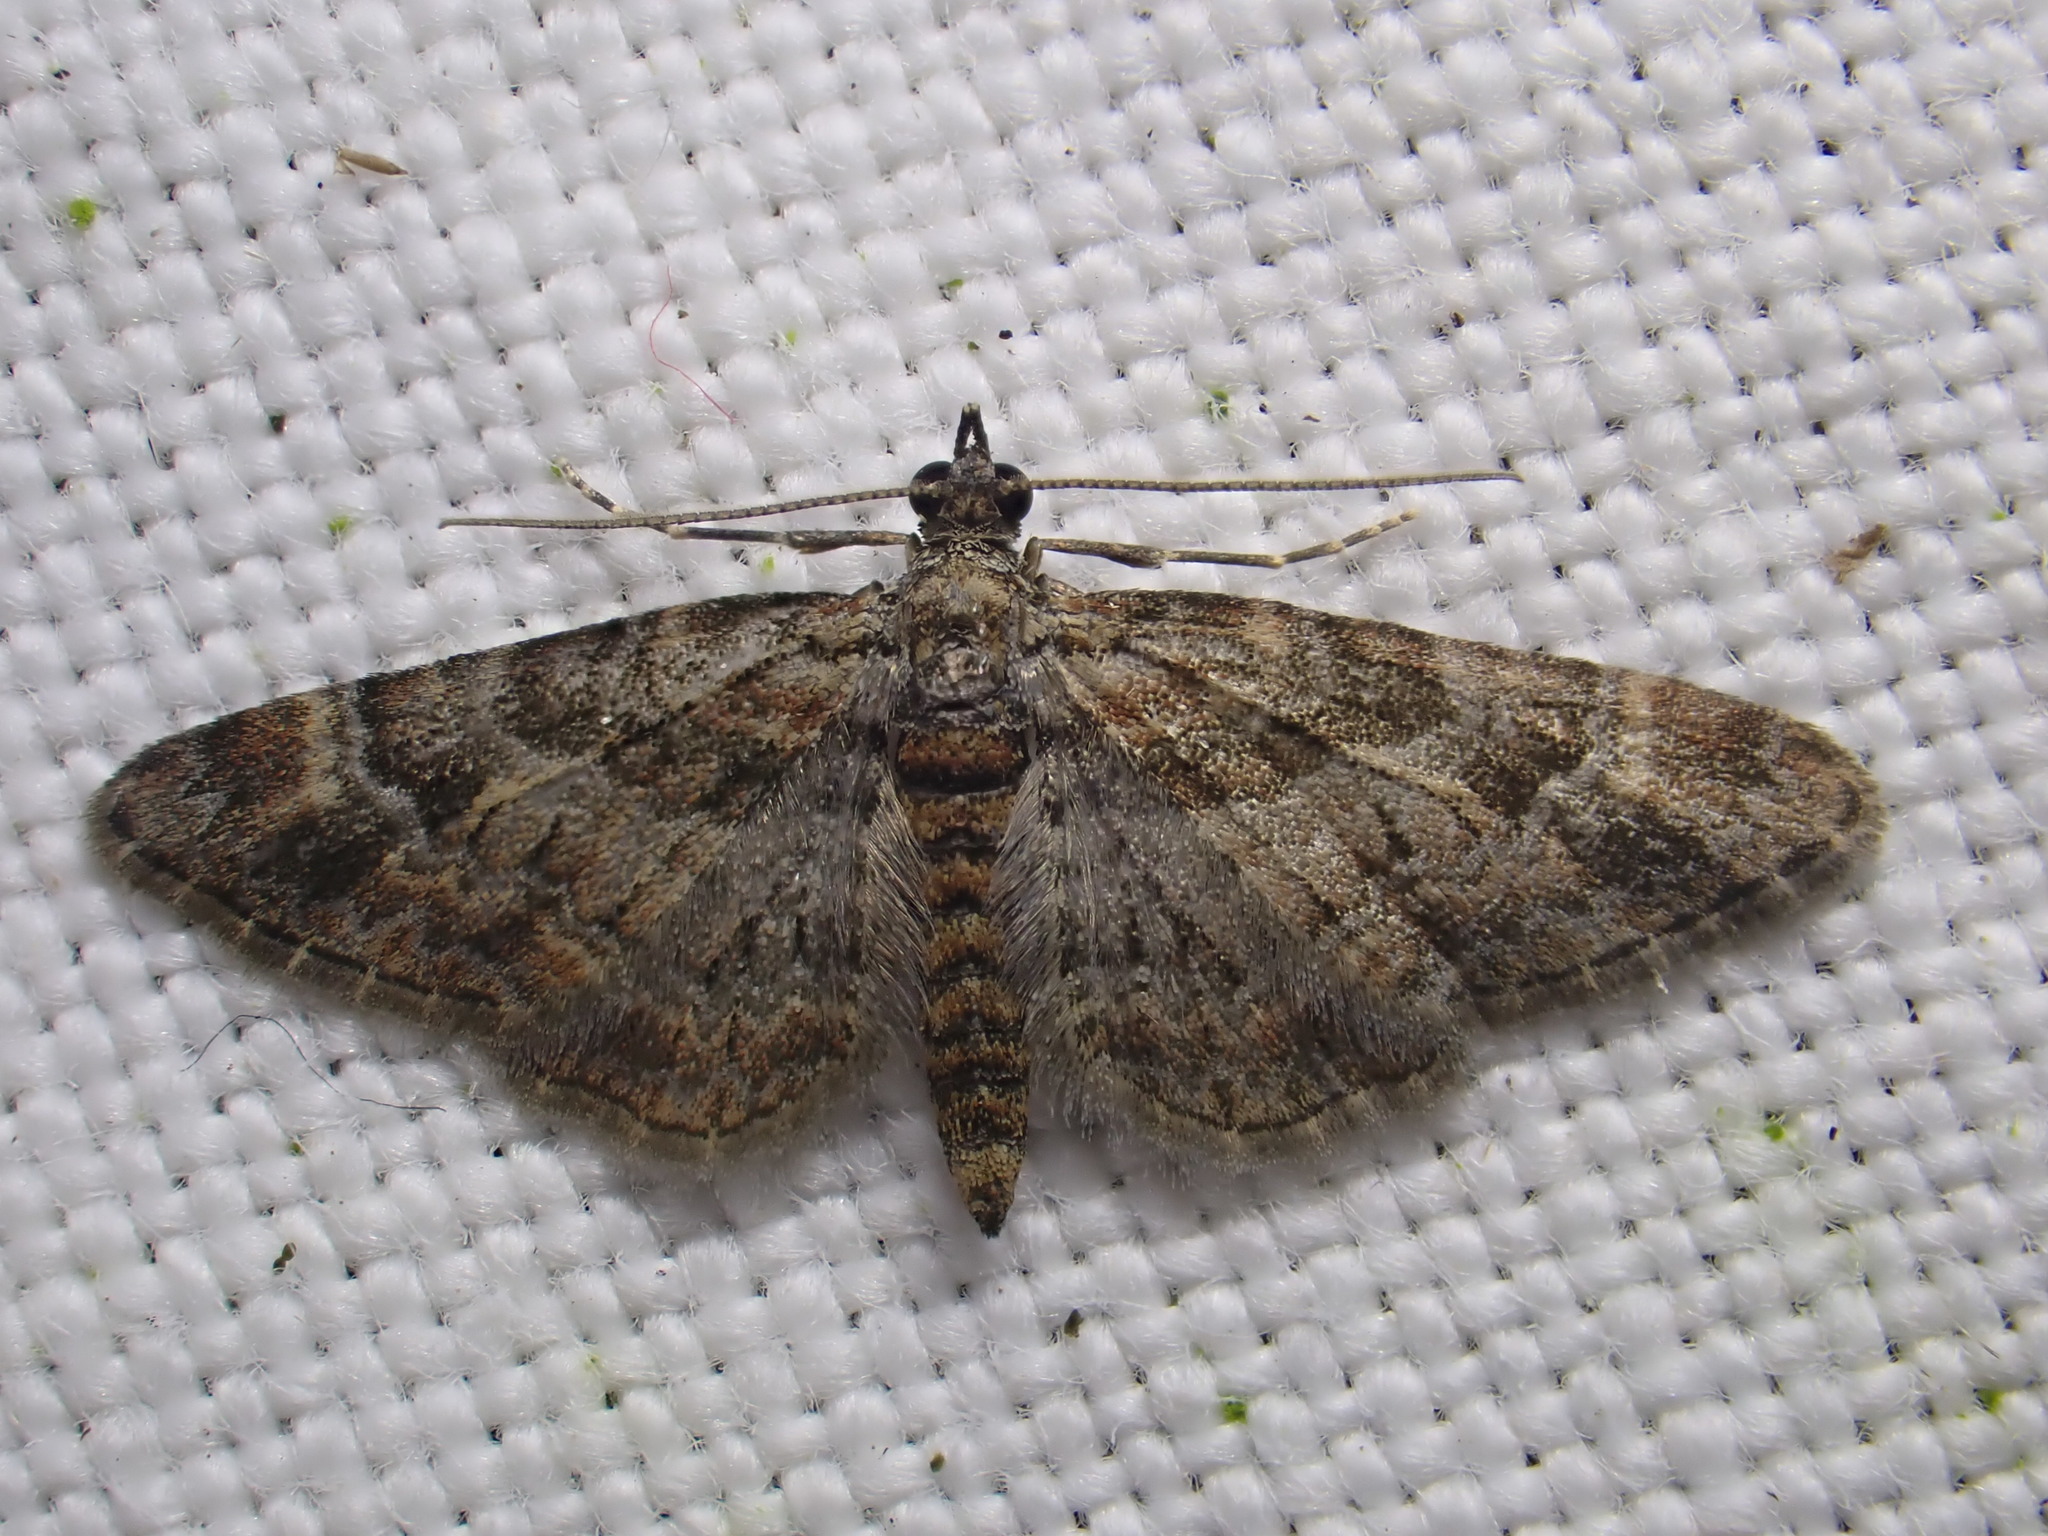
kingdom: Animalia
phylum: Arthropoda
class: Insecta
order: Lepidoptera
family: Geometridae
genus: Gymnoscelis
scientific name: Gymnoscelis rufifasciata
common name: Double-striped pug
